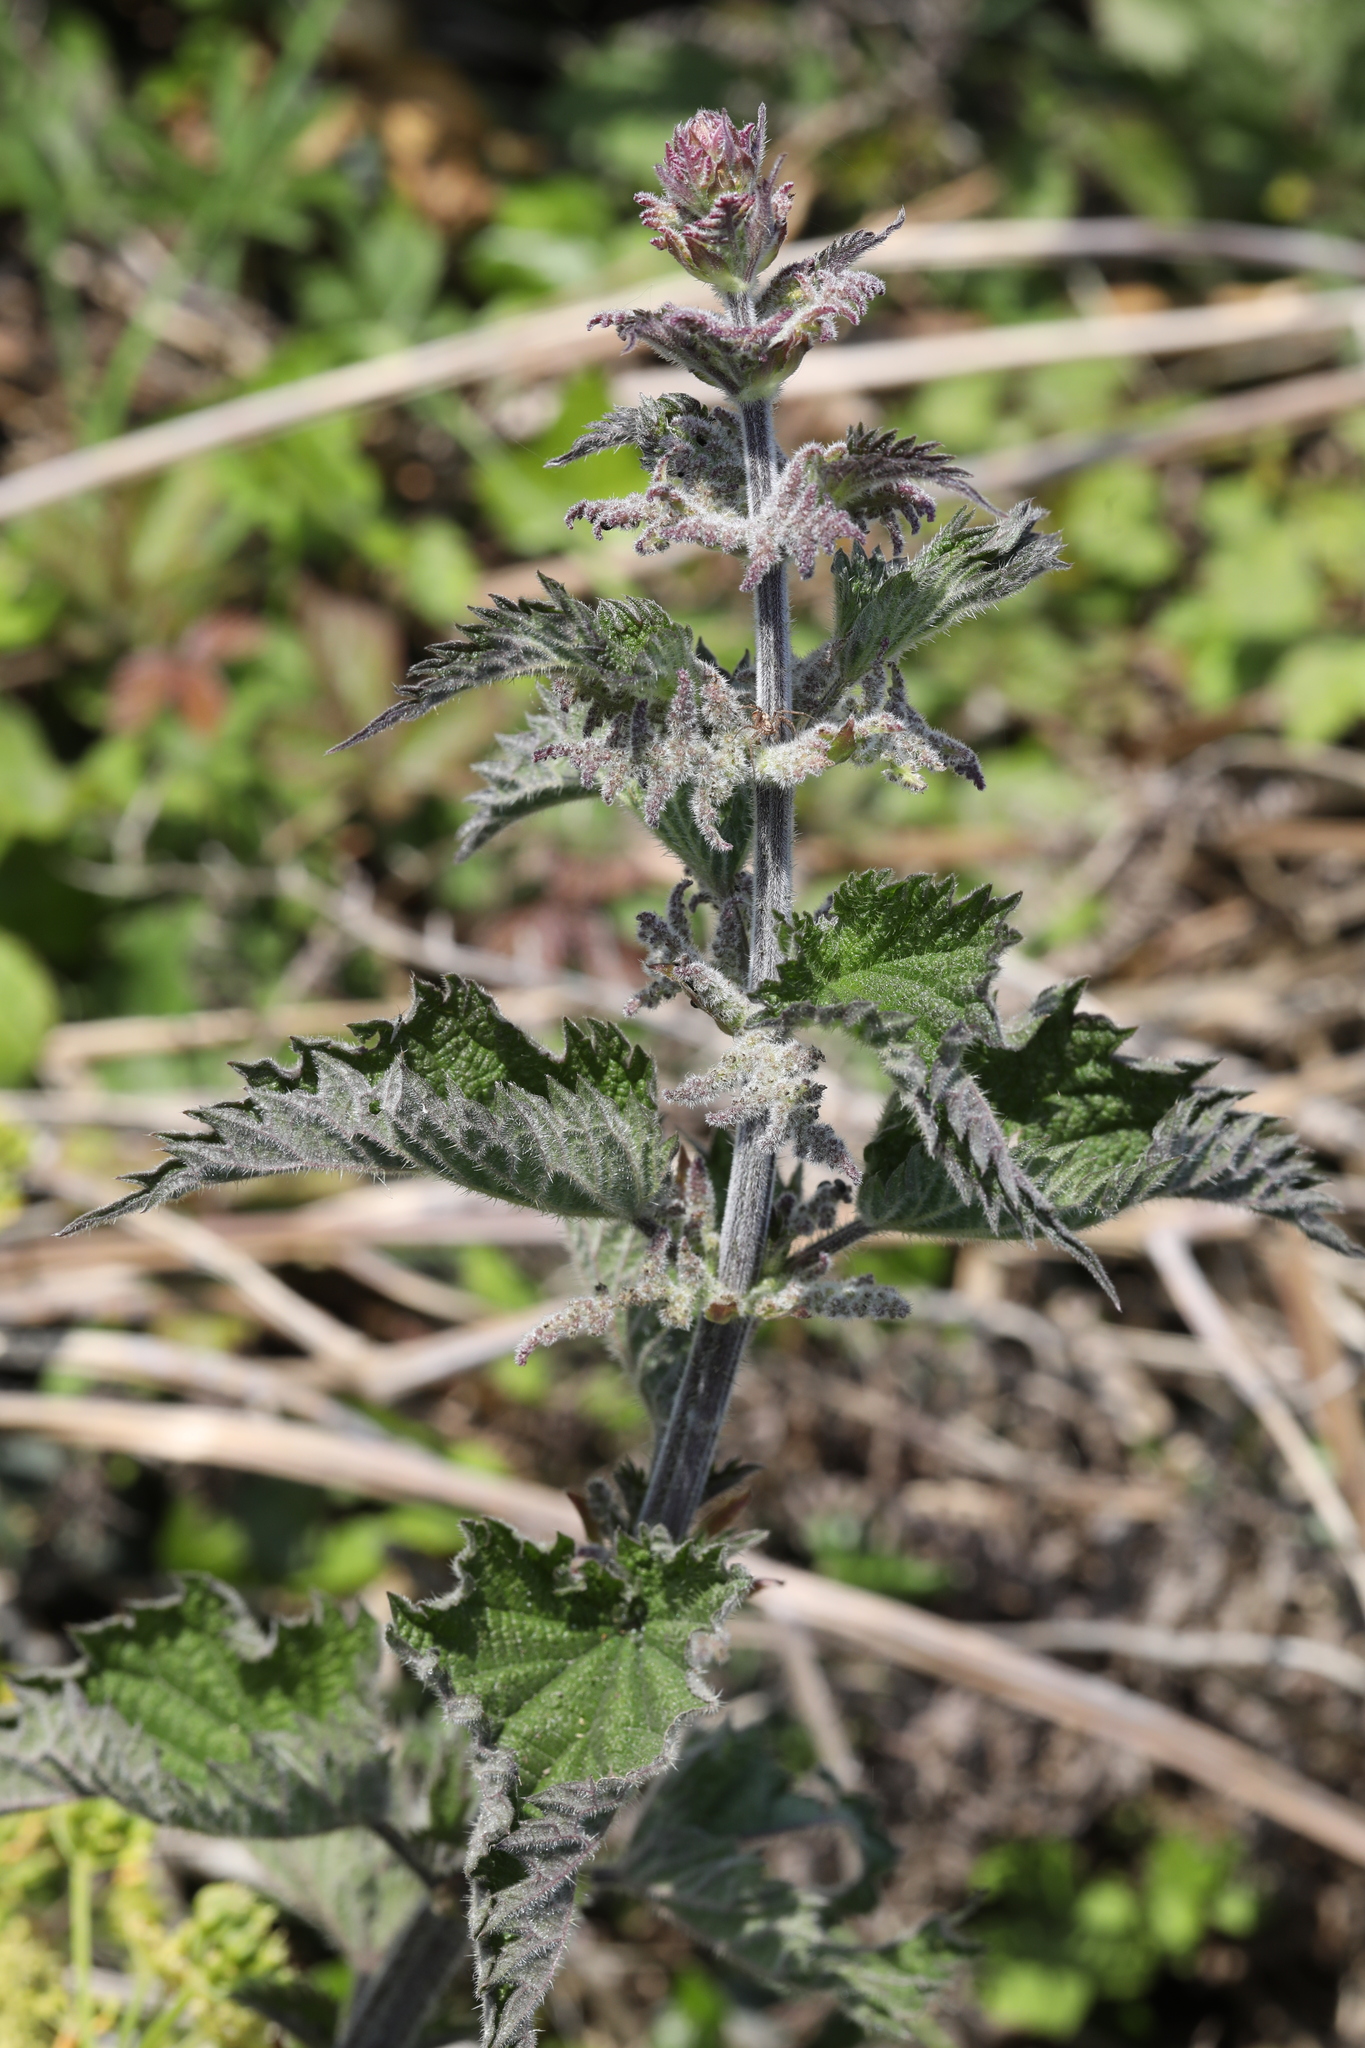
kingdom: Plantae
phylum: Tracheophyta
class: Magnoliopsida
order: Rosales
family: Urticaceae
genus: Urtica
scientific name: Urtica dioica
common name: Common nettle
